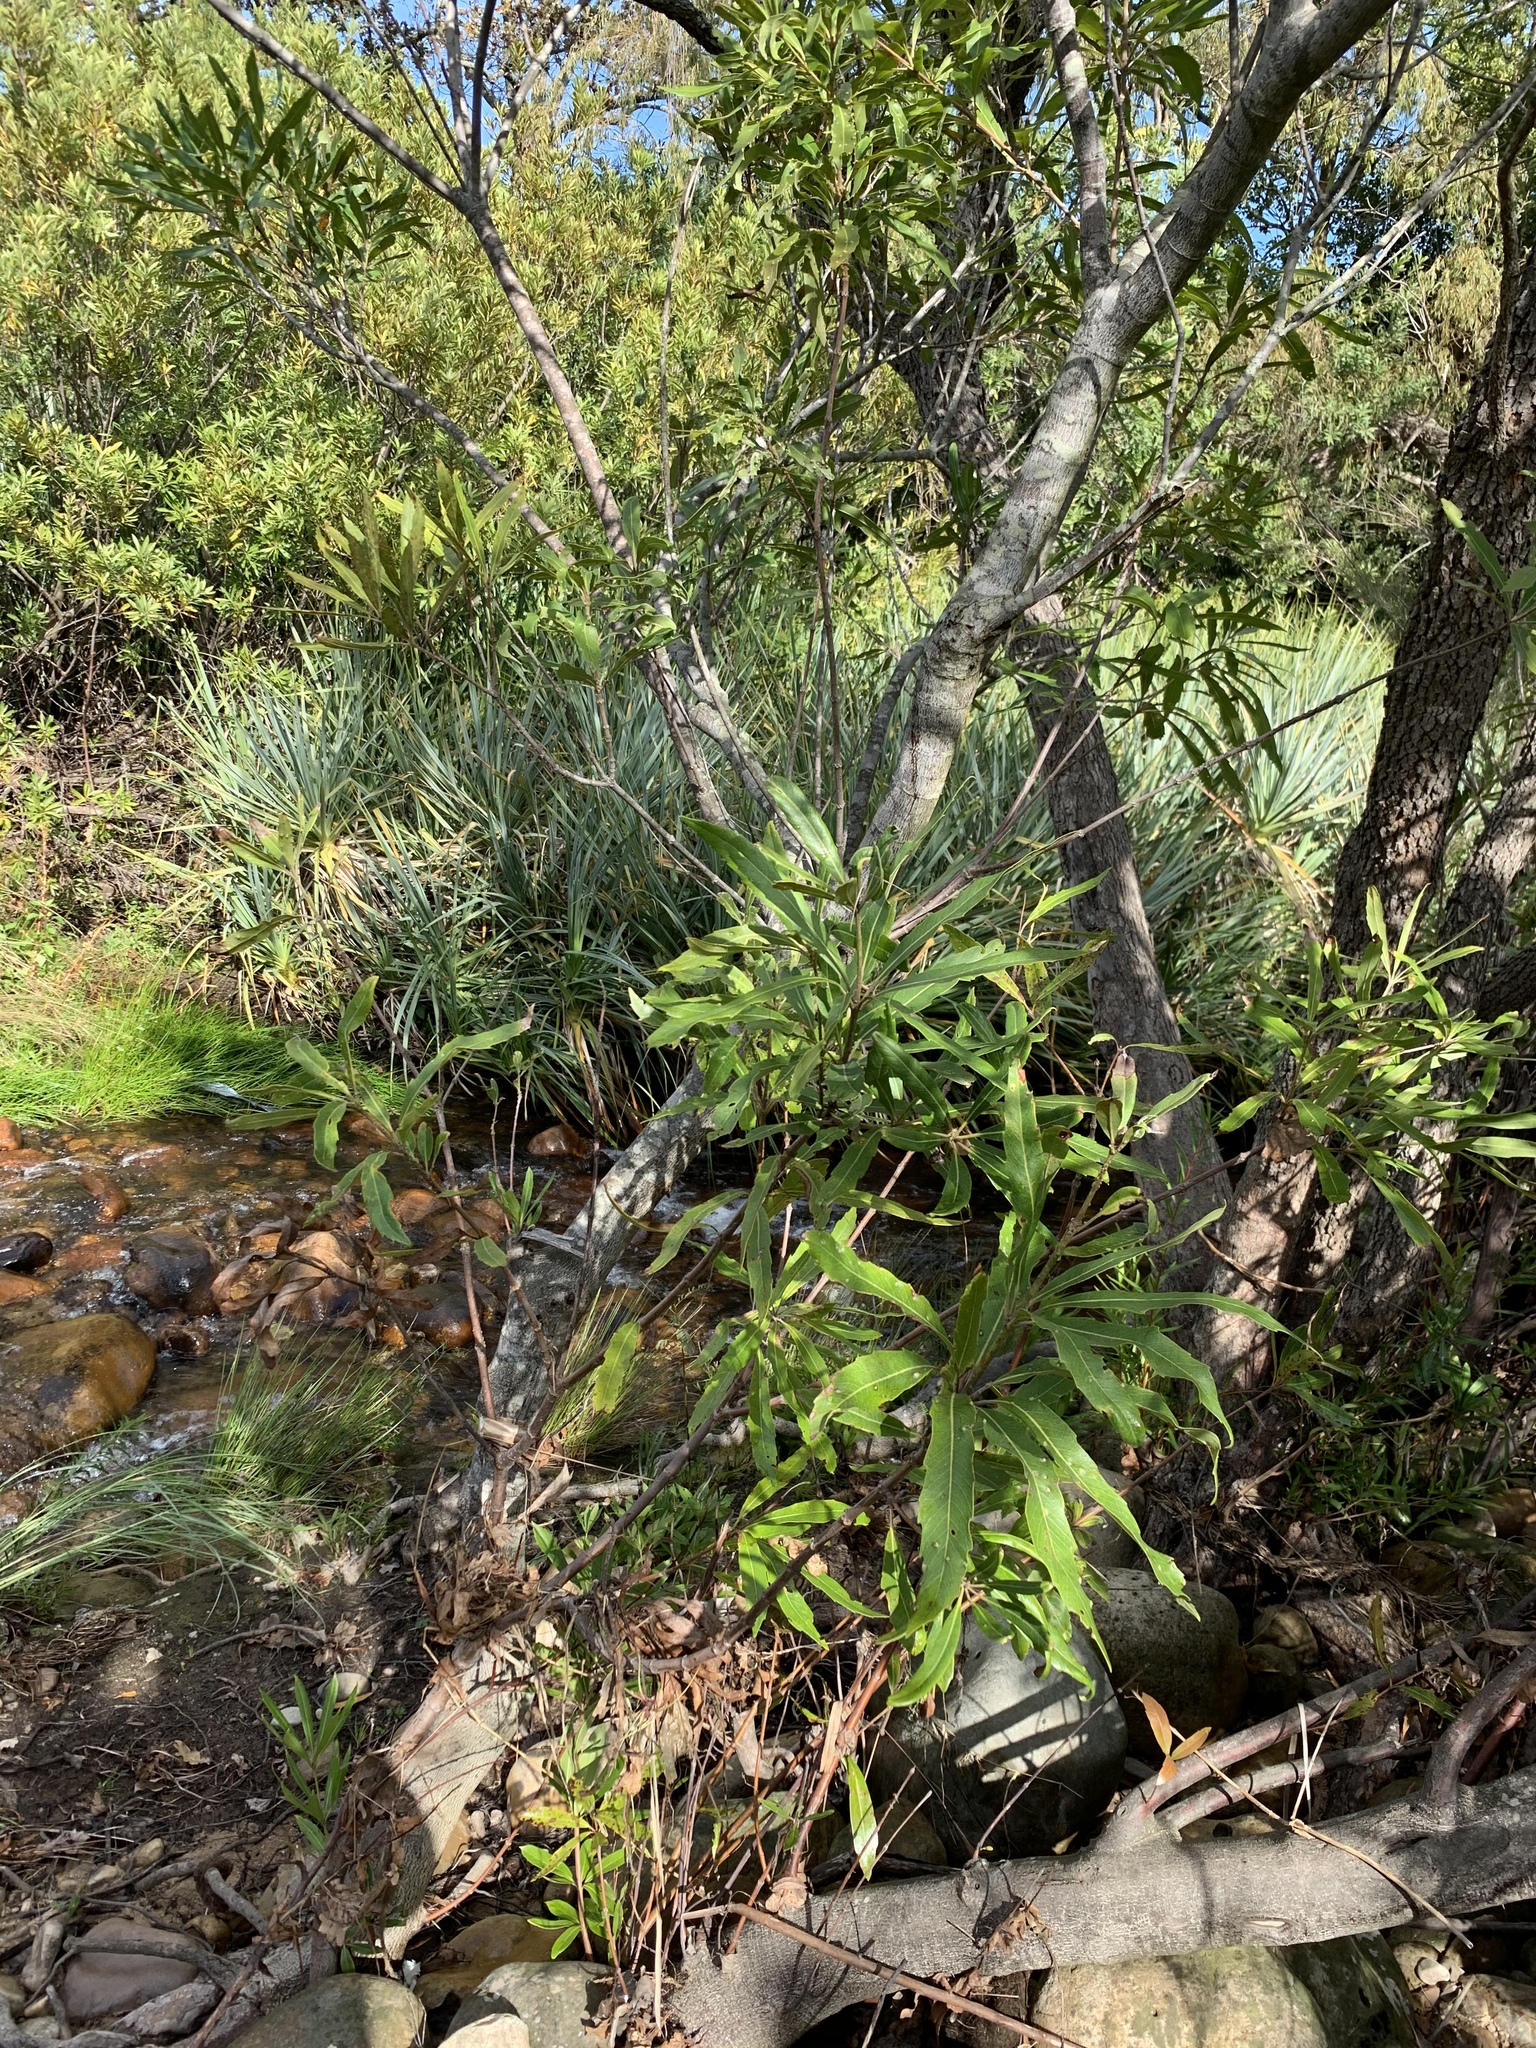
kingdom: Plantae
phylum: Tracheophyta
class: Magnoliopsida
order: Proteales
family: Proteaceae
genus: Brabejum
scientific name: Brabejum stellatifolium
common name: Wild almond
